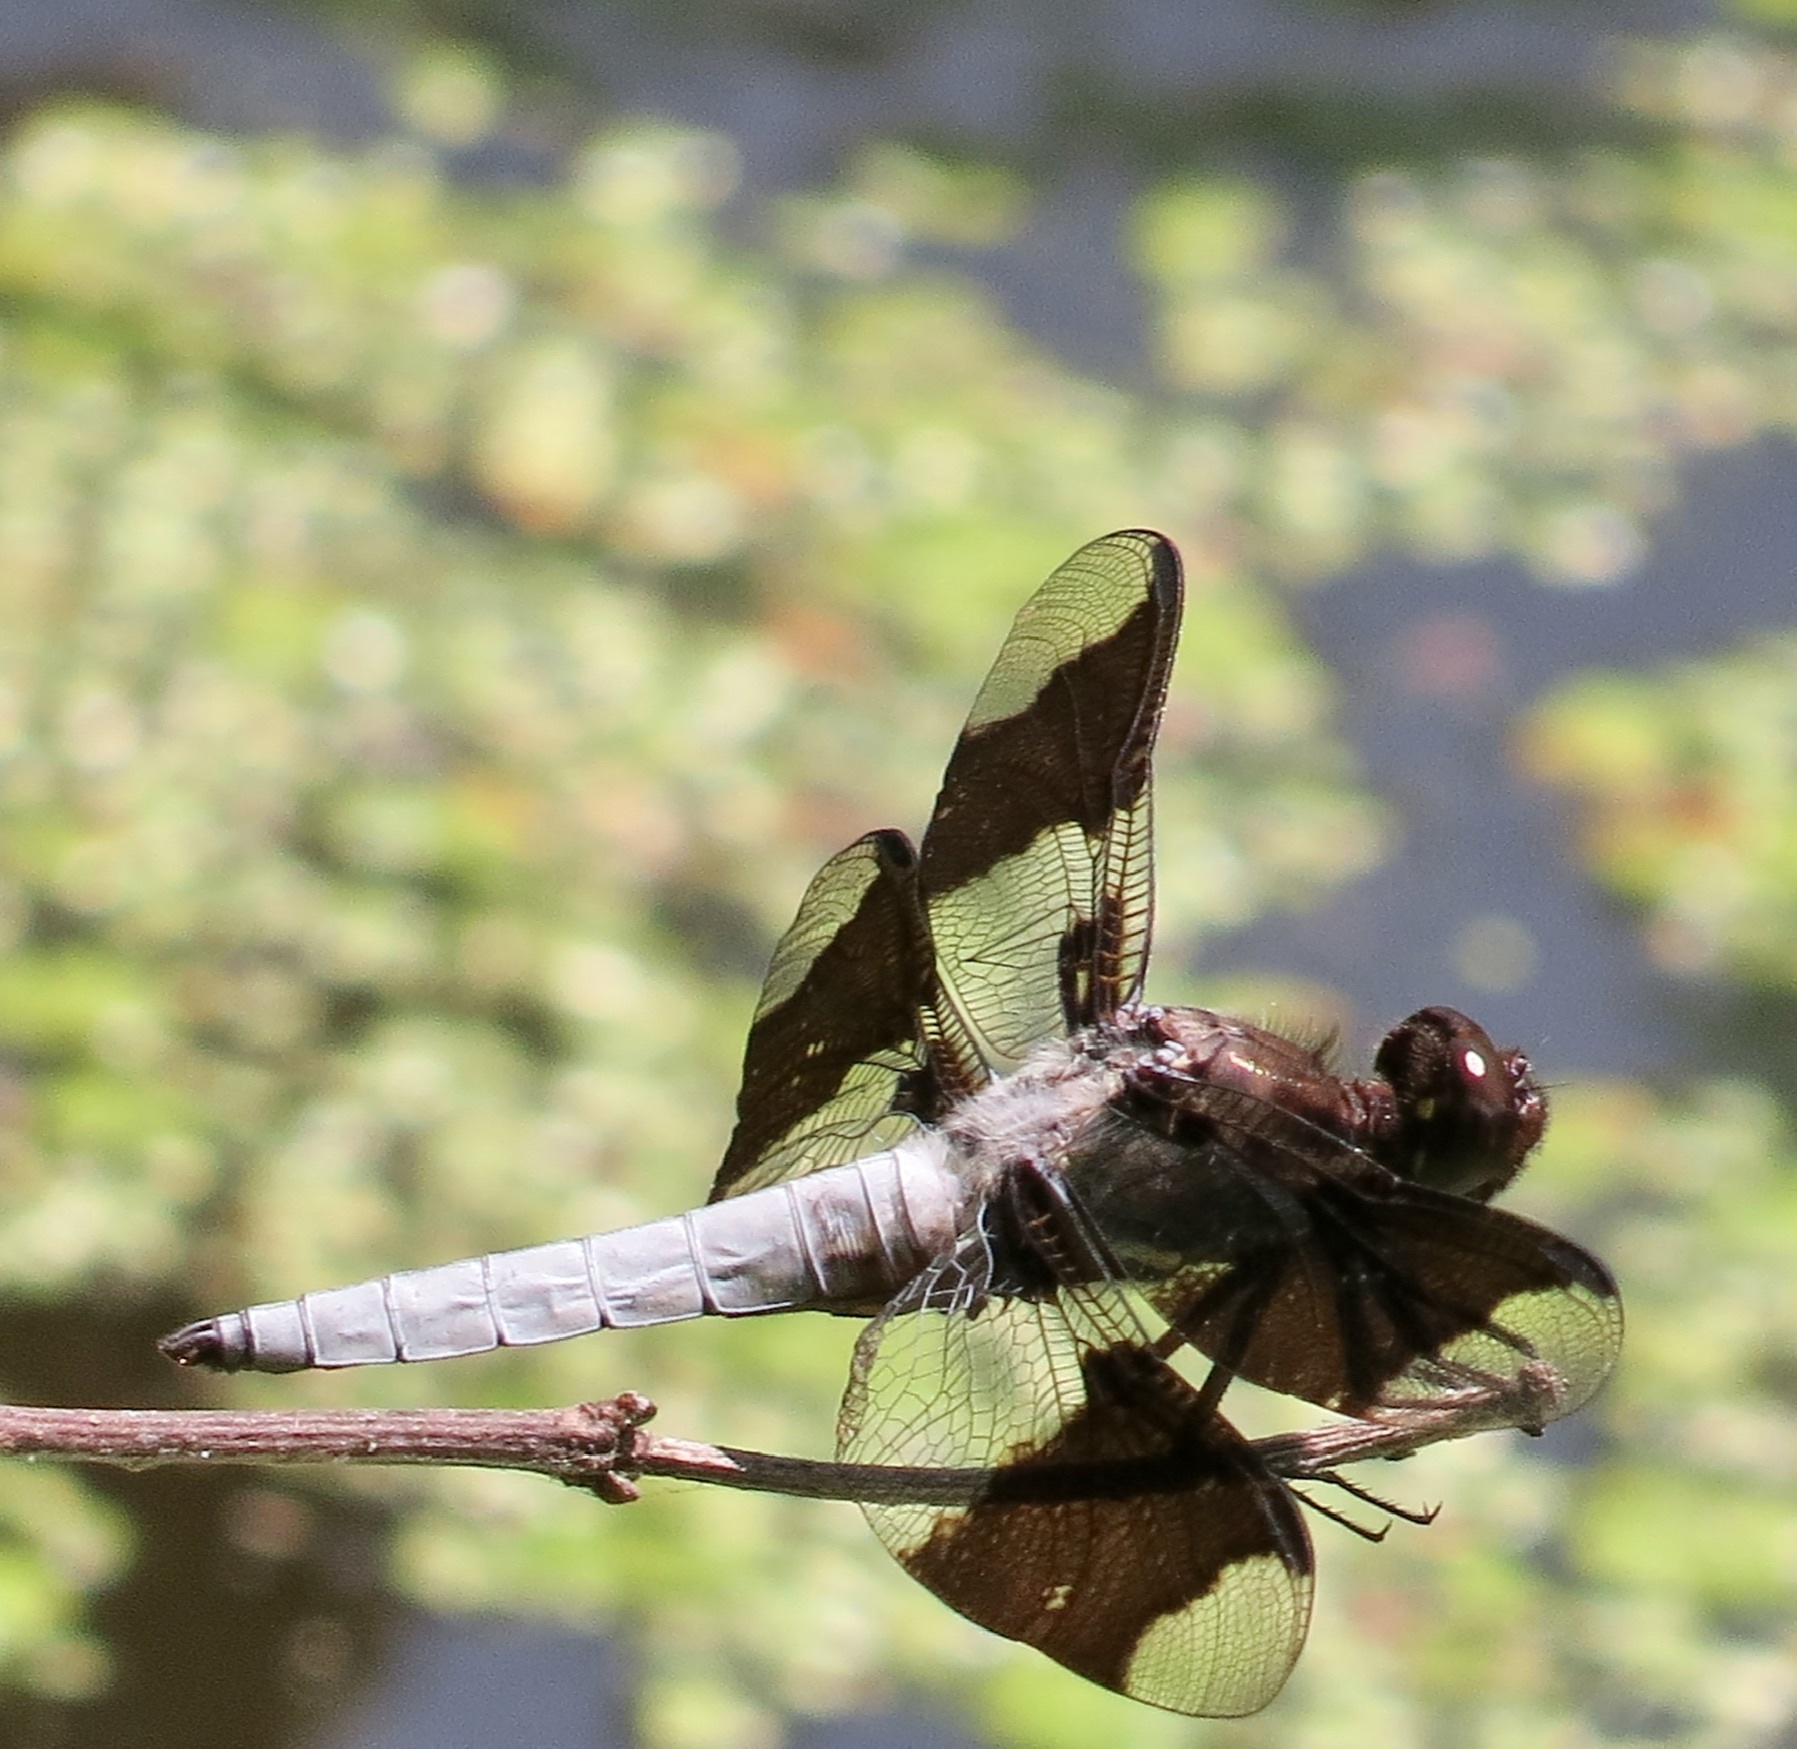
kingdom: Animalia
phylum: Arthropoda
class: Insecta
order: Odonata
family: Libellulidae
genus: Plathemis
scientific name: Plathemis lydia
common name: Common whitetail
